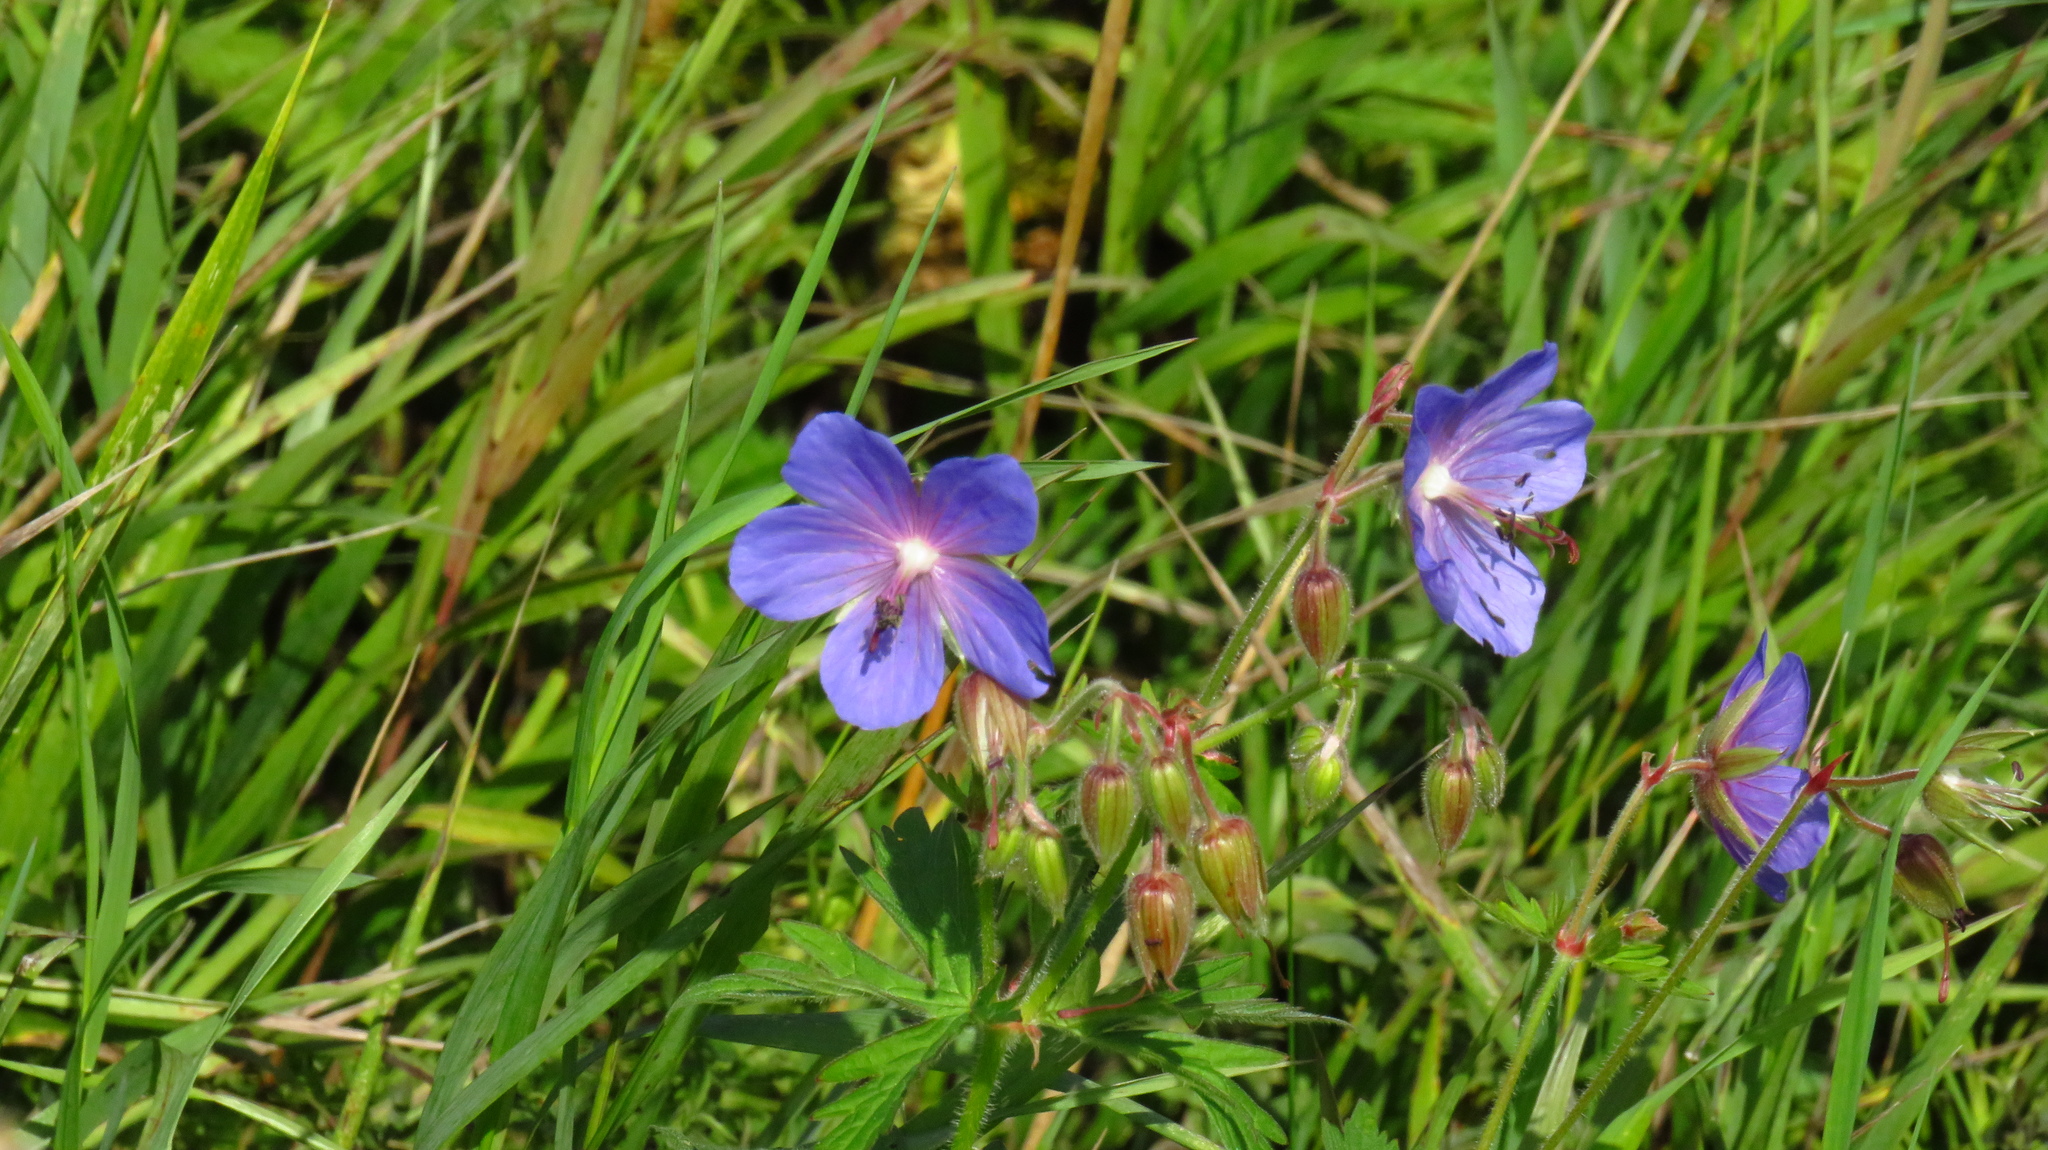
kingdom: Plantae
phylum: Tracheophyta
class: Magnoliopsida
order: Geraniales
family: Geraniaceae
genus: Geranium
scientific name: Geranium pratense
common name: Meadow crane's-bill
